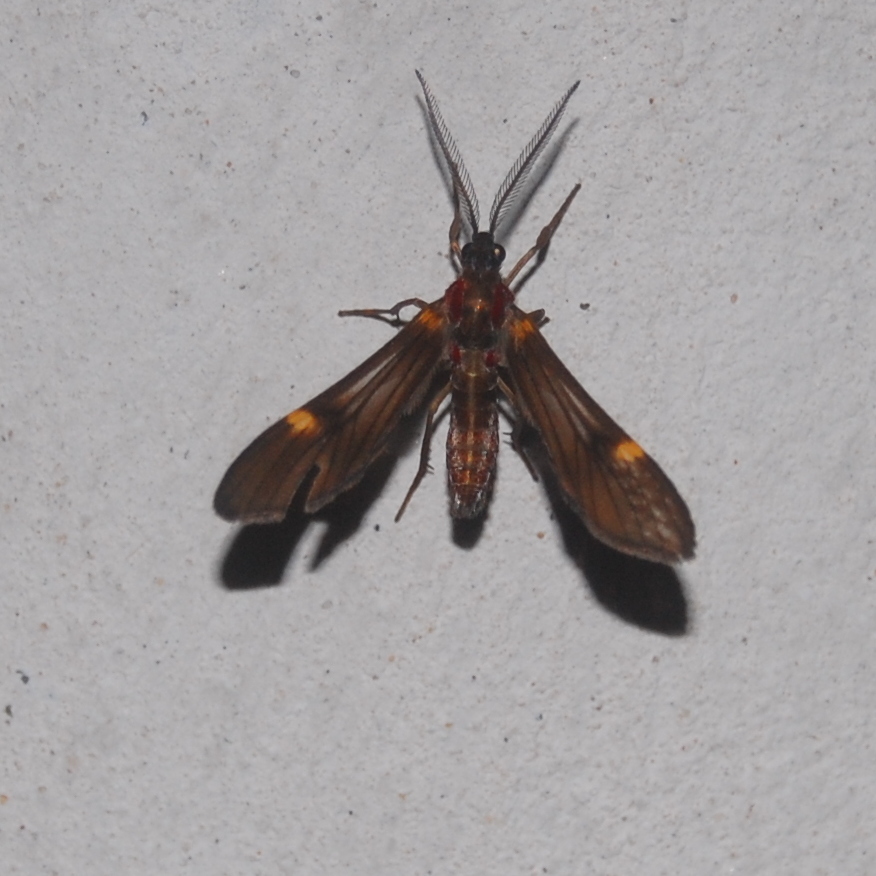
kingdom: Animalia
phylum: Arthropoda
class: Insecta
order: Lepidoptera
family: Erebidae
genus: Rhynchopyga
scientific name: Rhynchopyga meisteri
